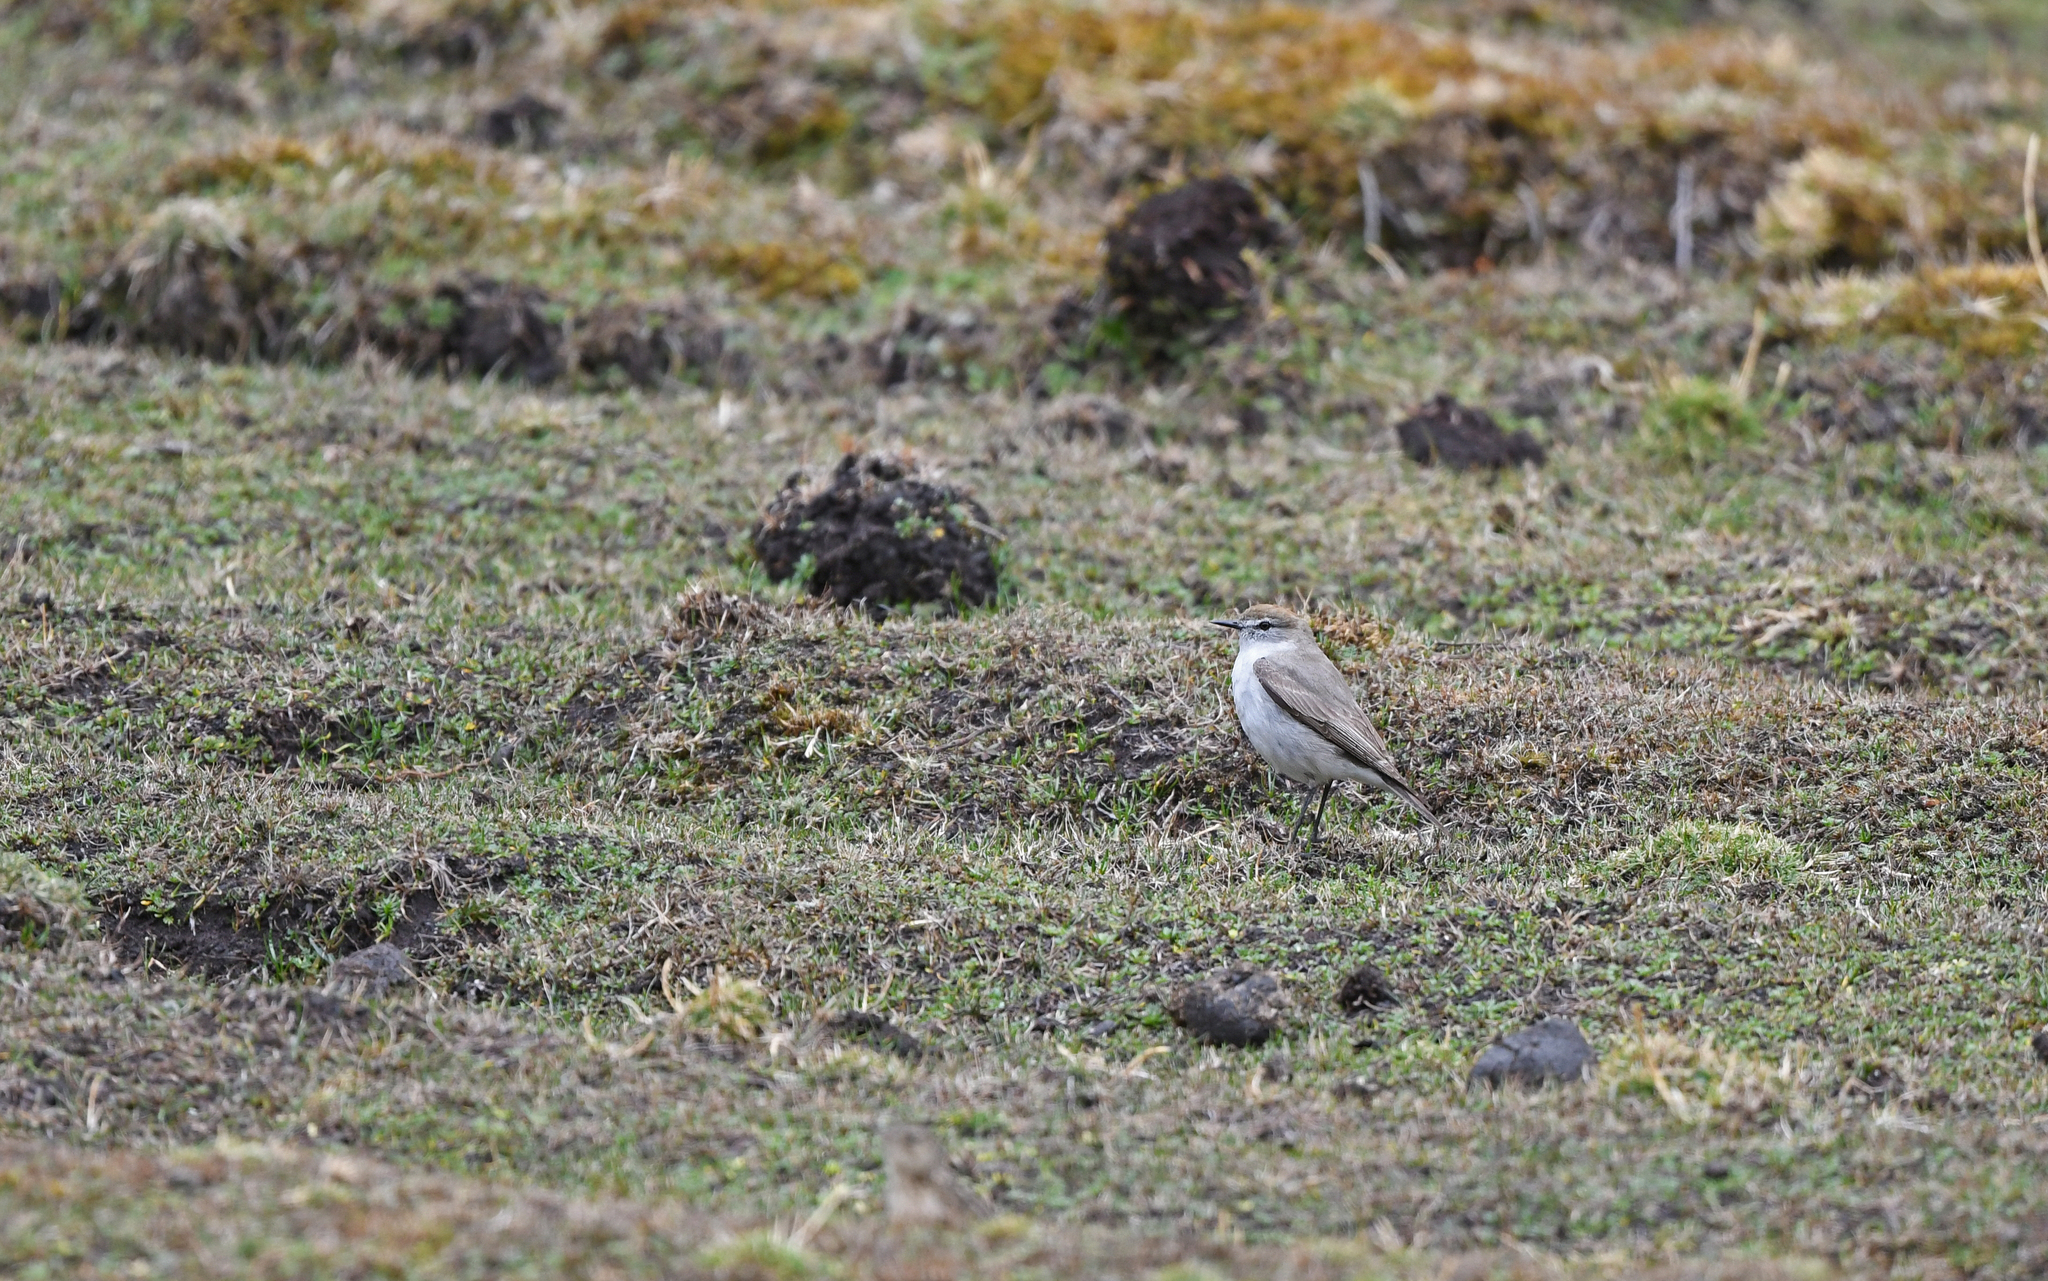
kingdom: Animalia
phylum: Chordata
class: Aves
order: Passeriformes
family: Tyrannidae
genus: Muscisaxicola
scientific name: Muscisaxicola juninensis
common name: Puna ground tyrant
